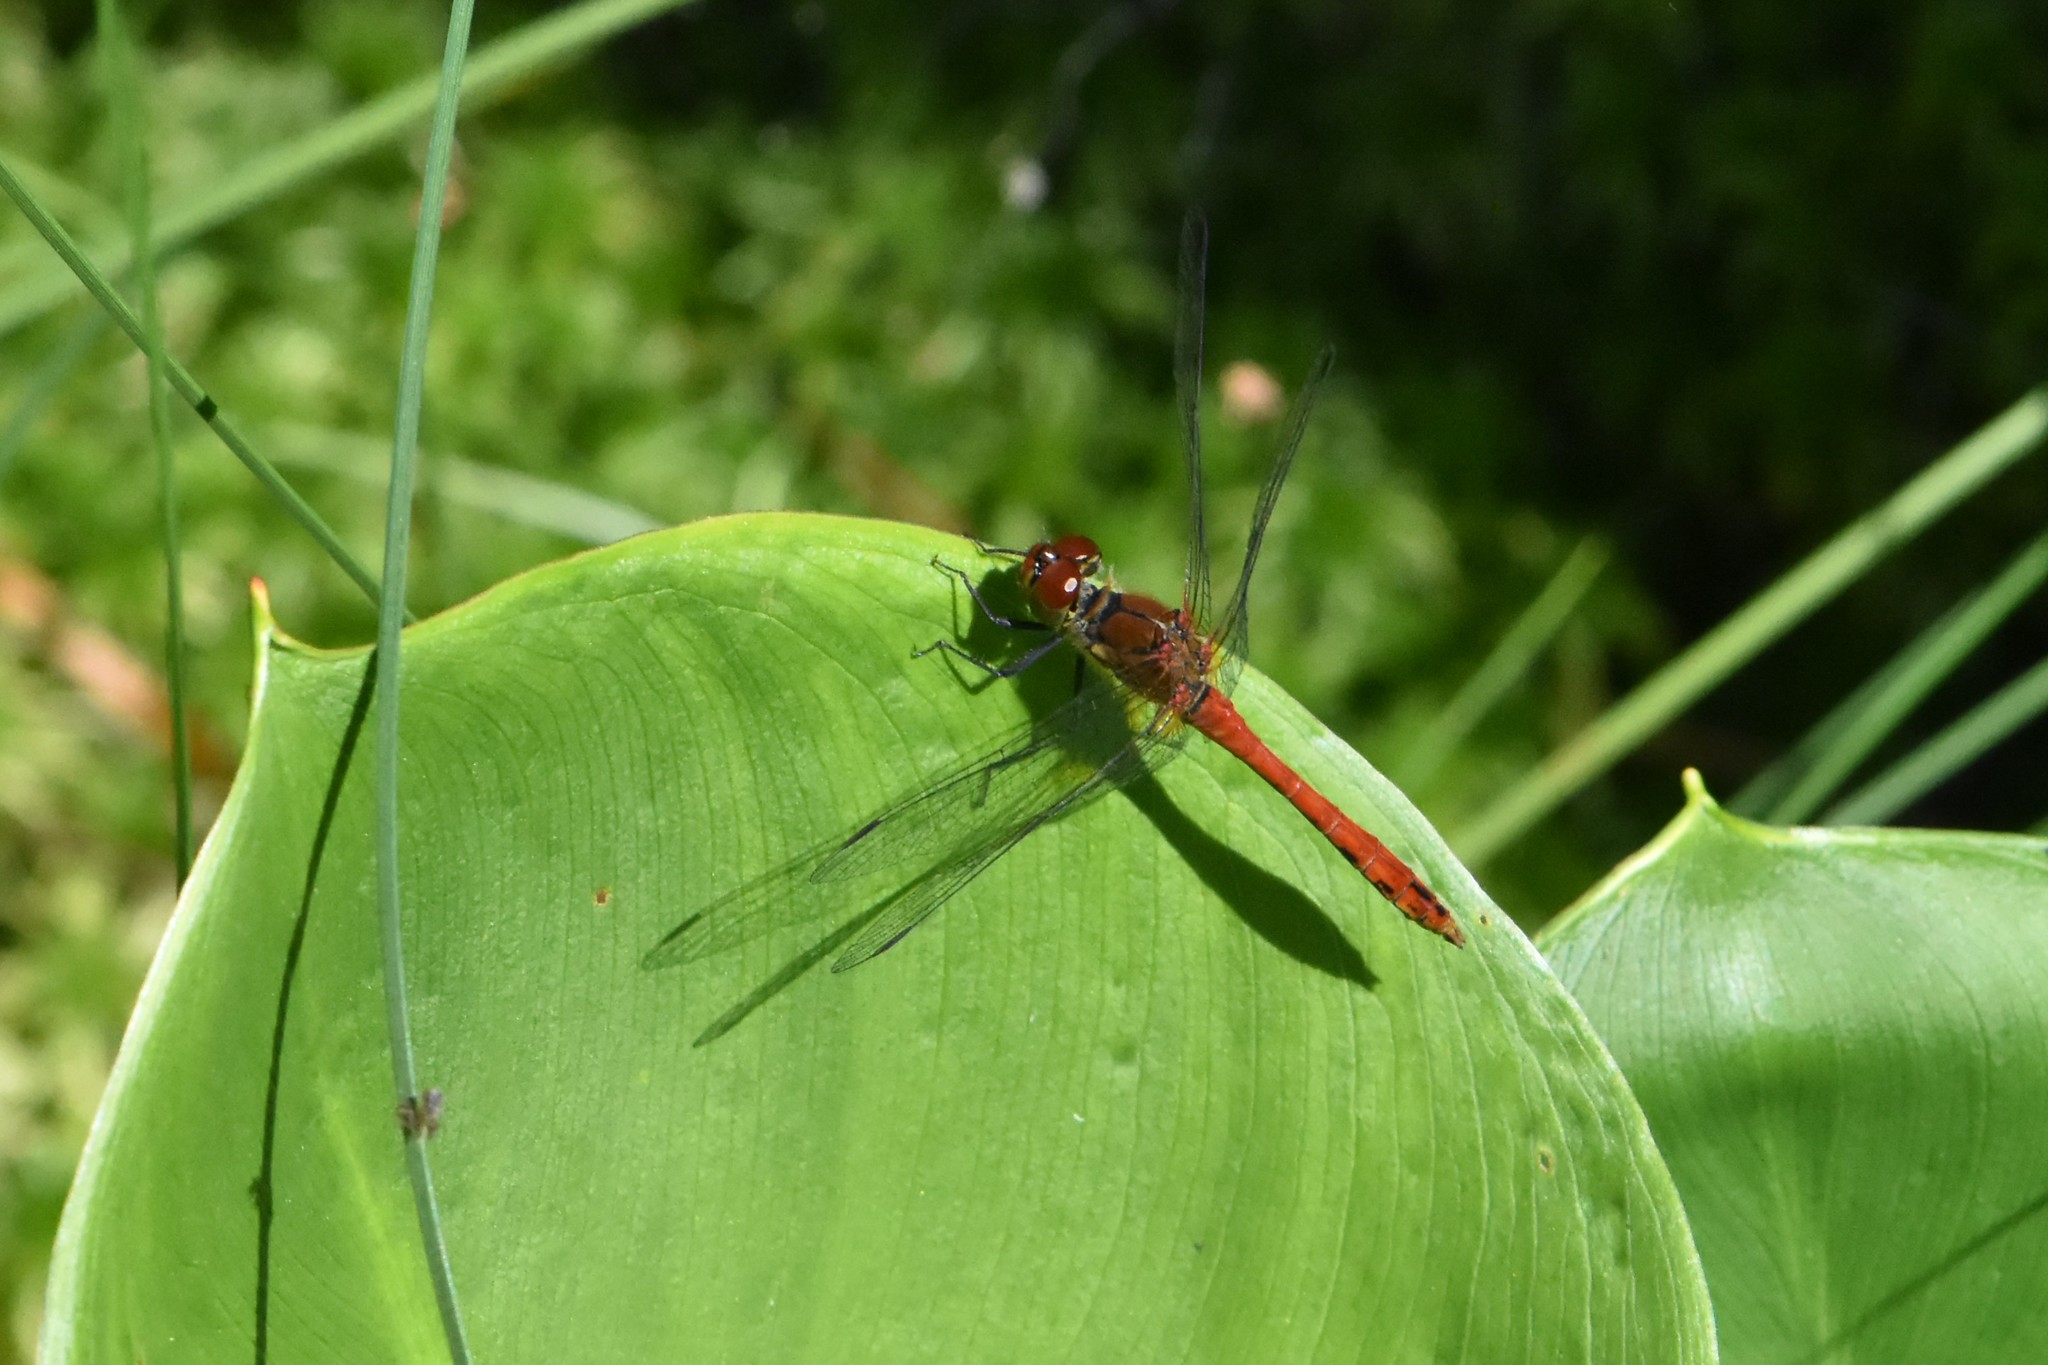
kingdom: Animalia
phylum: Arthropoda
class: Insecta
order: Odonata
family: Libellulidae
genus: Sympetrum
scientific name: Sympetrum sanguineum
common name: Ruddy darter
